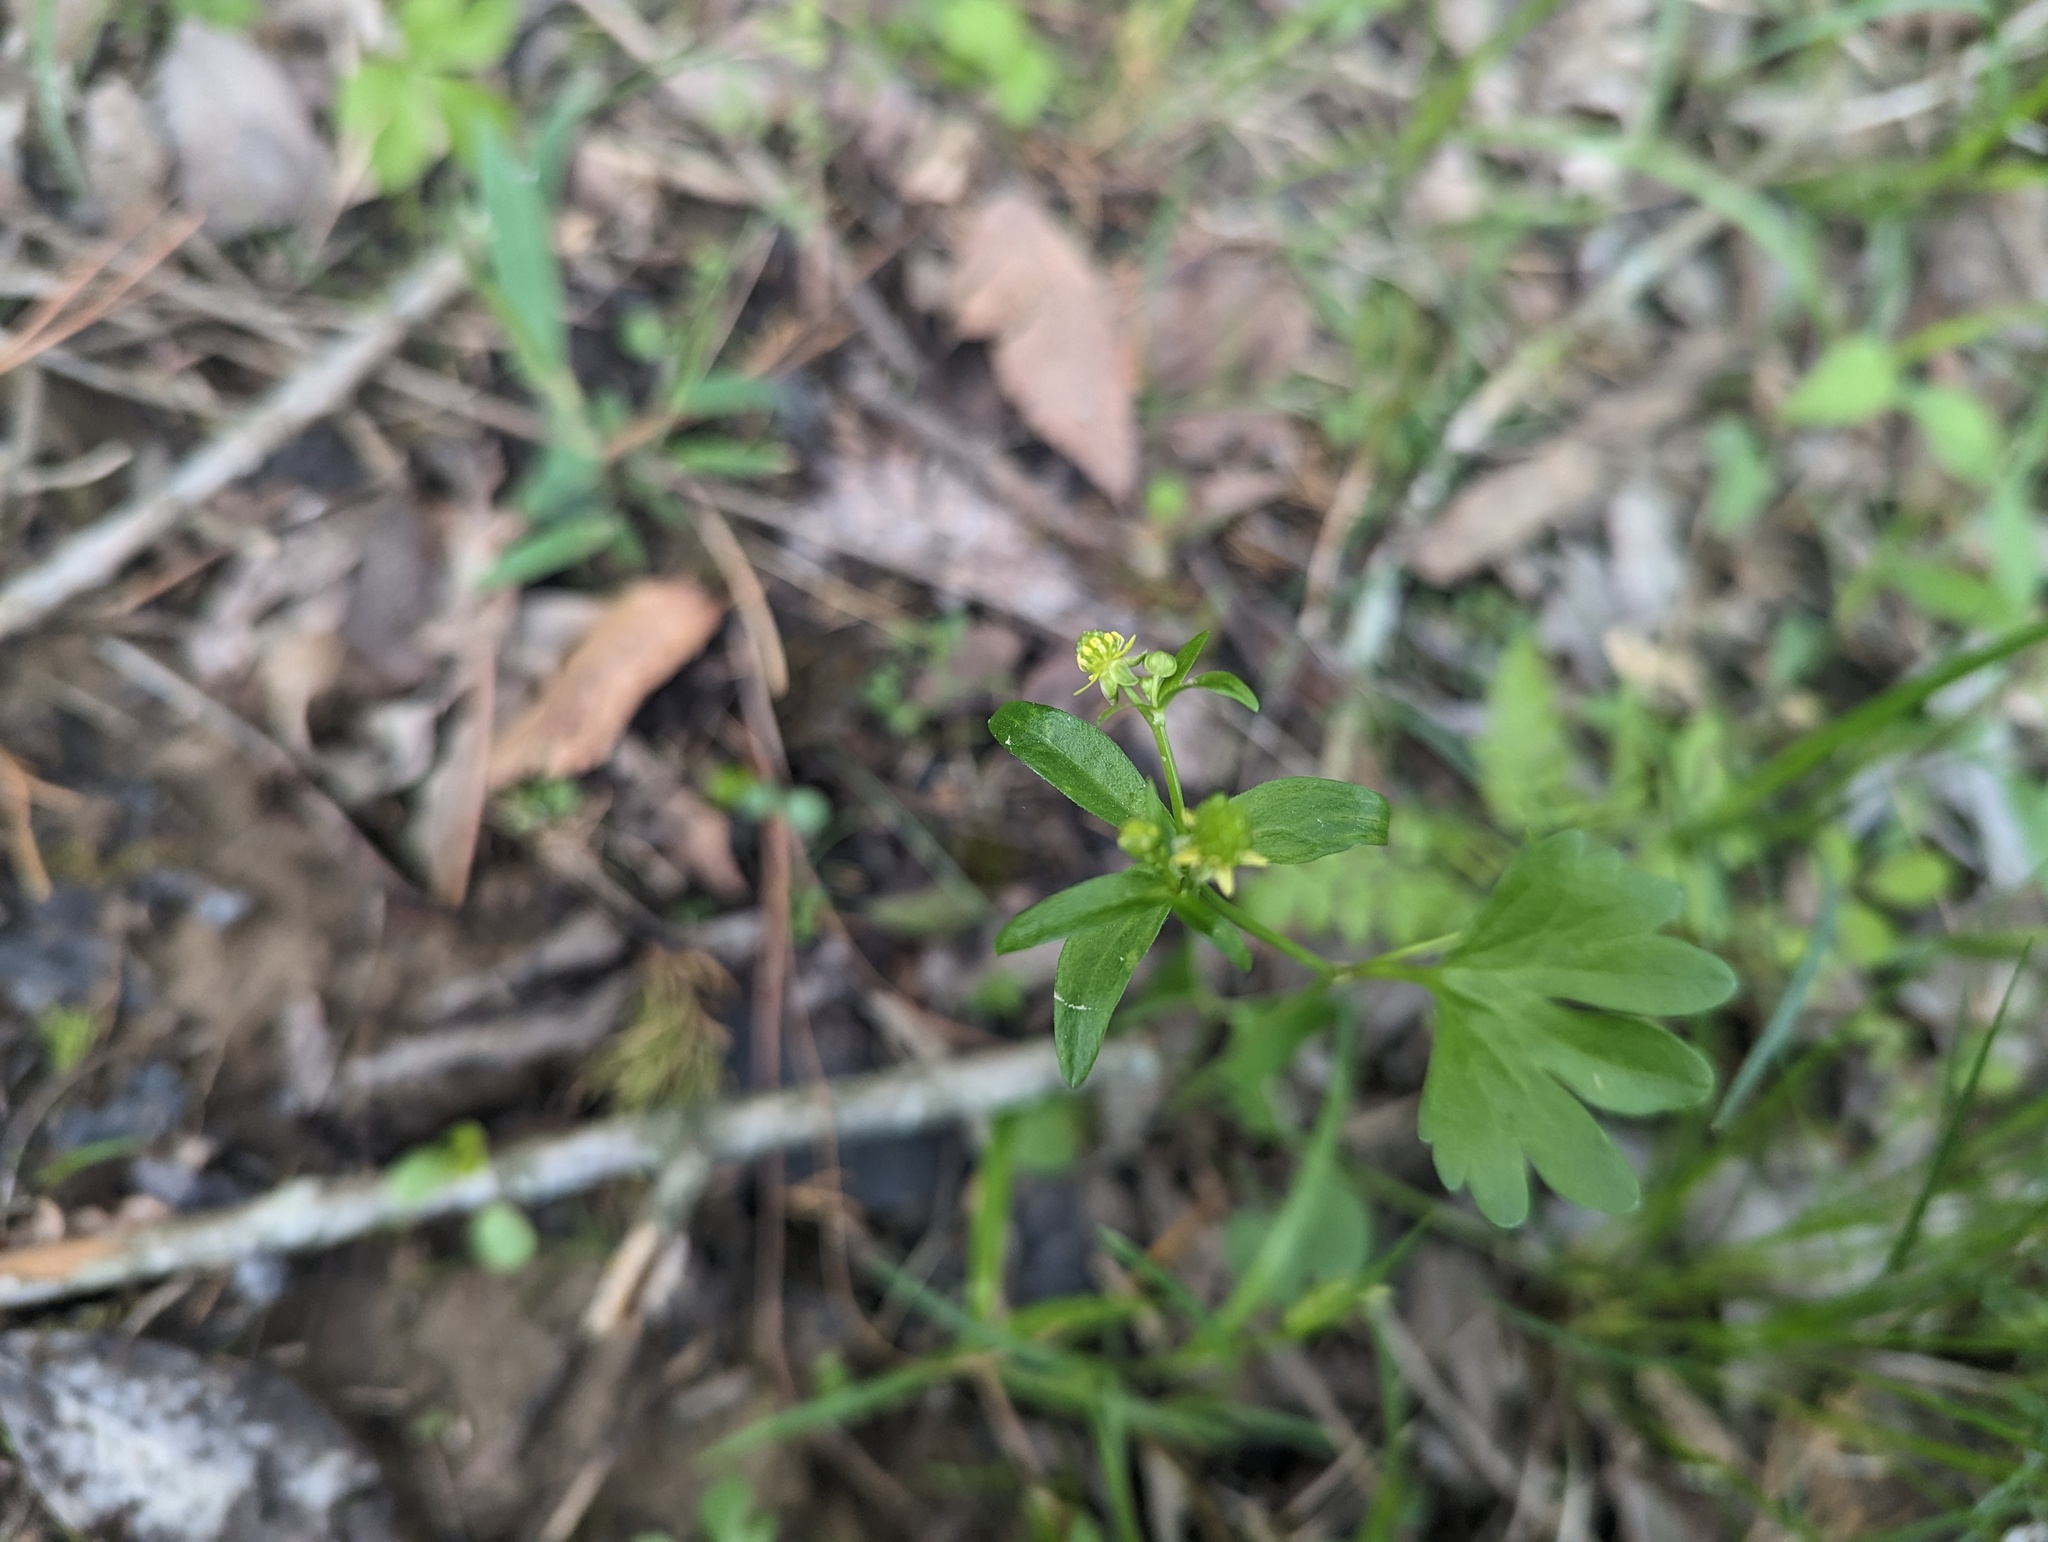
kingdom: Plantae
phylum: Tracheophyta
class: Magnoliopsida
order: Ranunculales
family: Ranunculaceae
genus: Ranunculus
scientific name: Ranunculus abortivus
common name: Early wood buttercup
